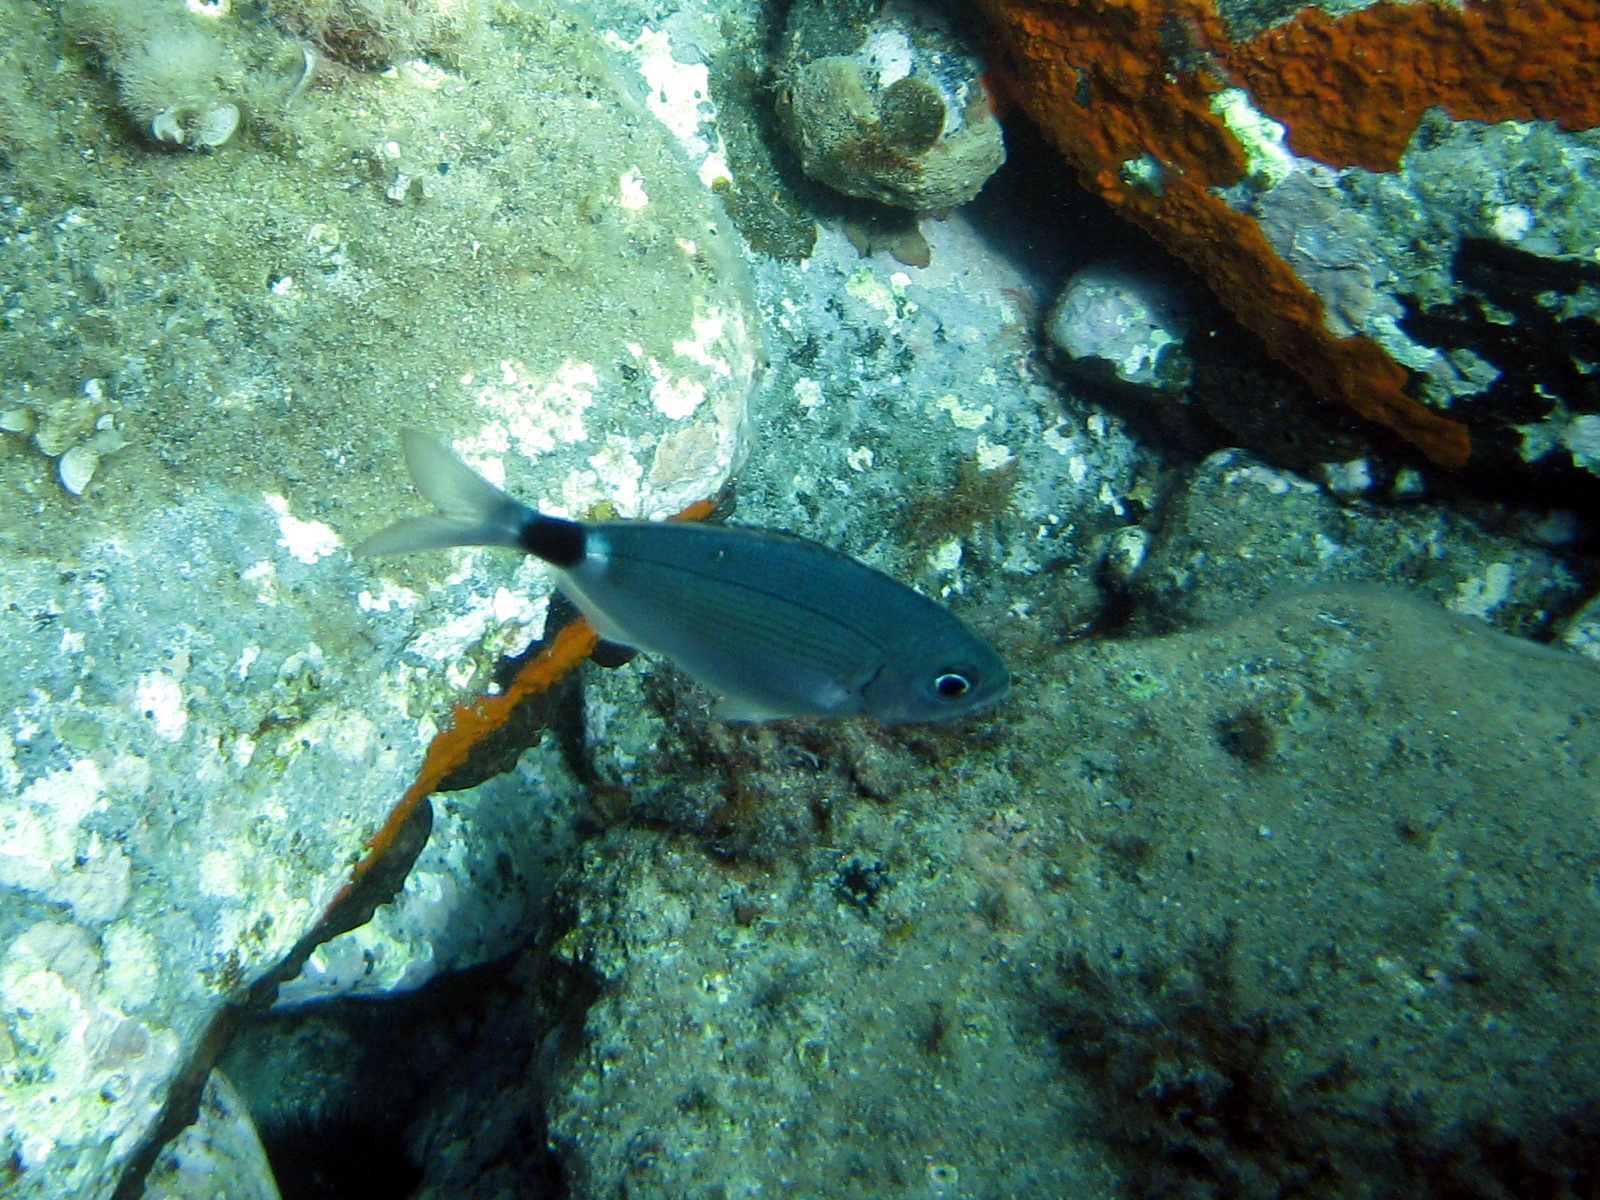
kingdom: Animalia
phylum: Chordata
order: Perciformes
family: Sparidae
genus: Oblada
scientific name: Oblada melanura
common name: Saddled seabream
